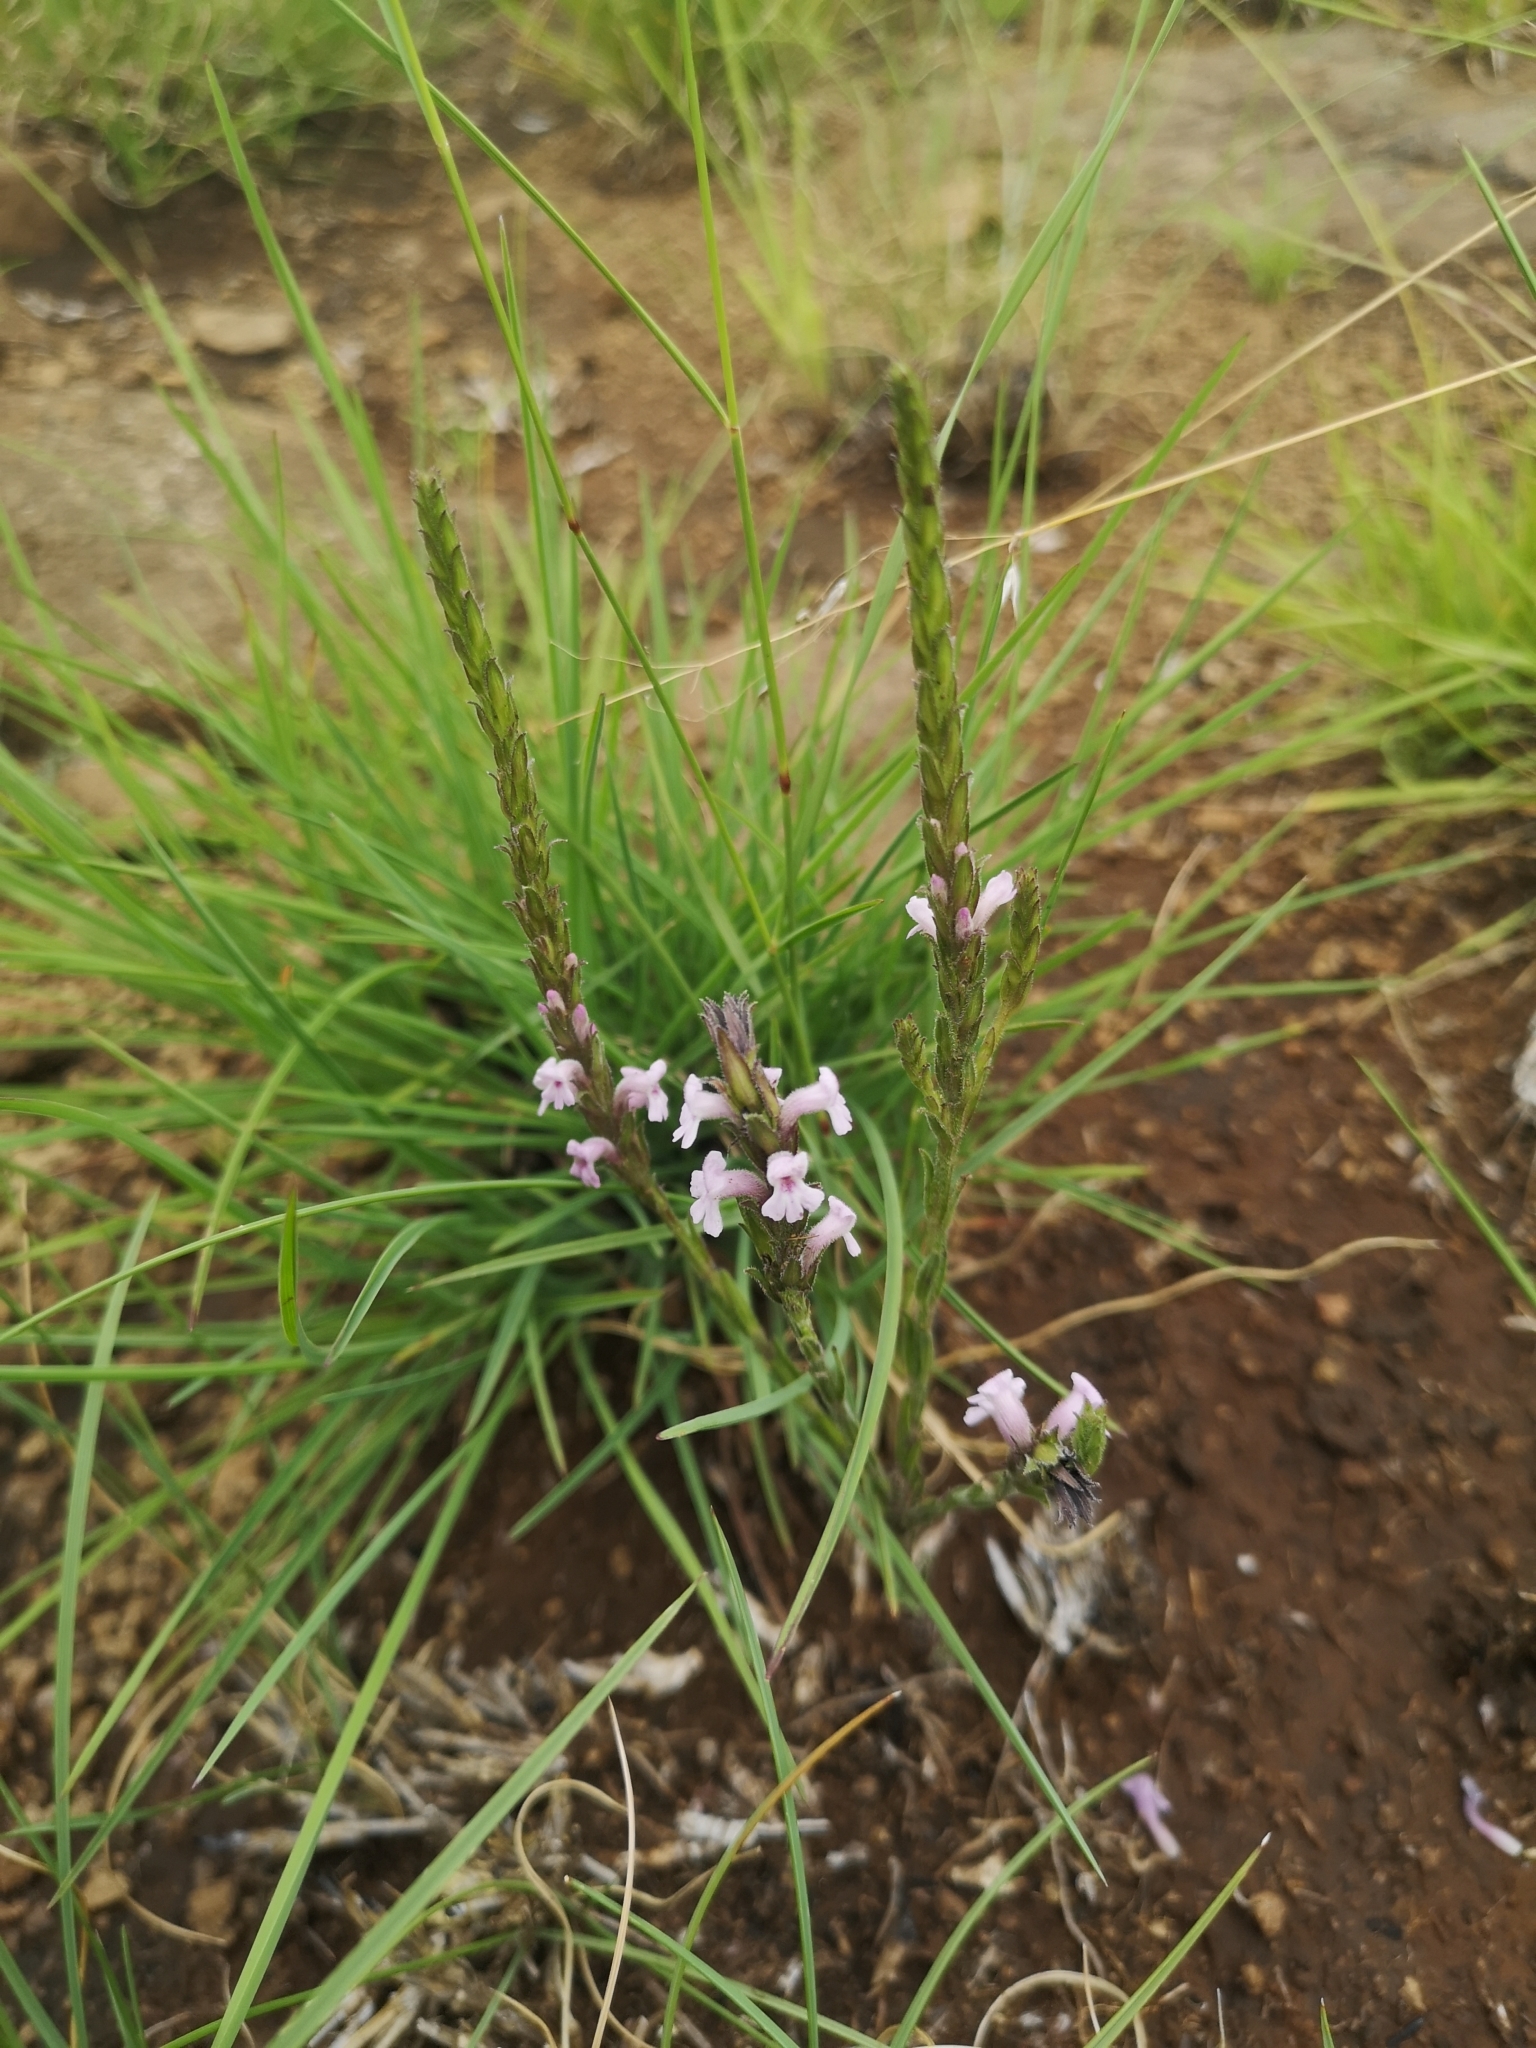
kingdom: Plantae
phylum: Tracheophyta
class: Magnoliopsida
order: Lamiales
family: Orobanchaceae
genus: Striga
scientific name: Striga bilabiata
